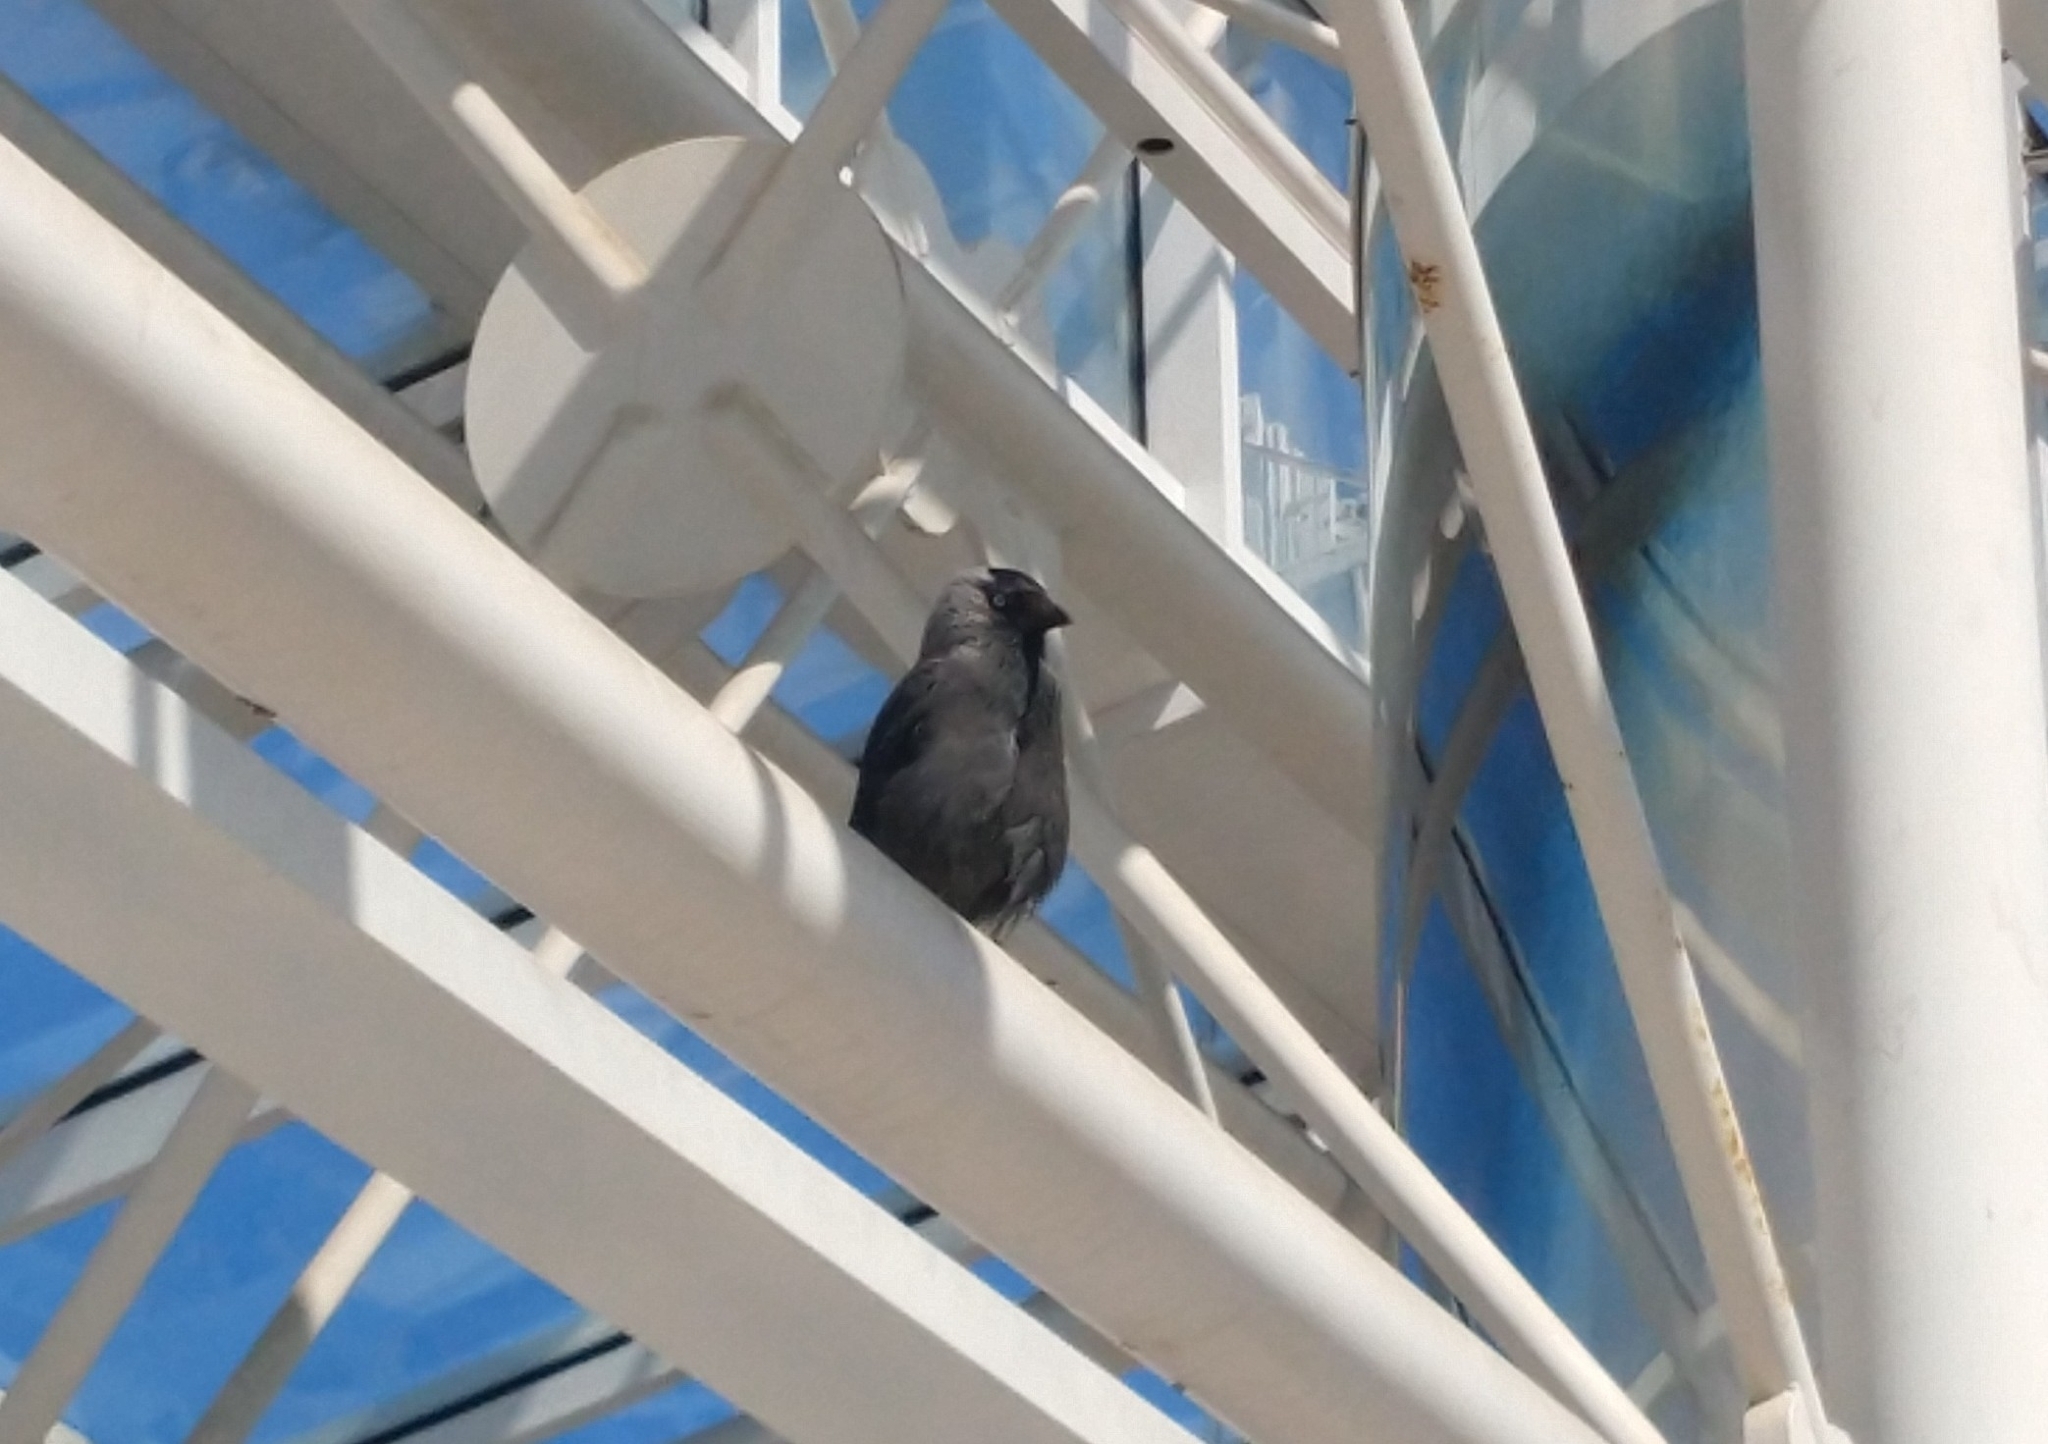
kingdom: Animalia
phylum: Chordata
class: Aves
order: Passeriformes
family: Corvidae
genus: Coloeus
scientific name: Coloeus monedula
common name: Western jackdaw
